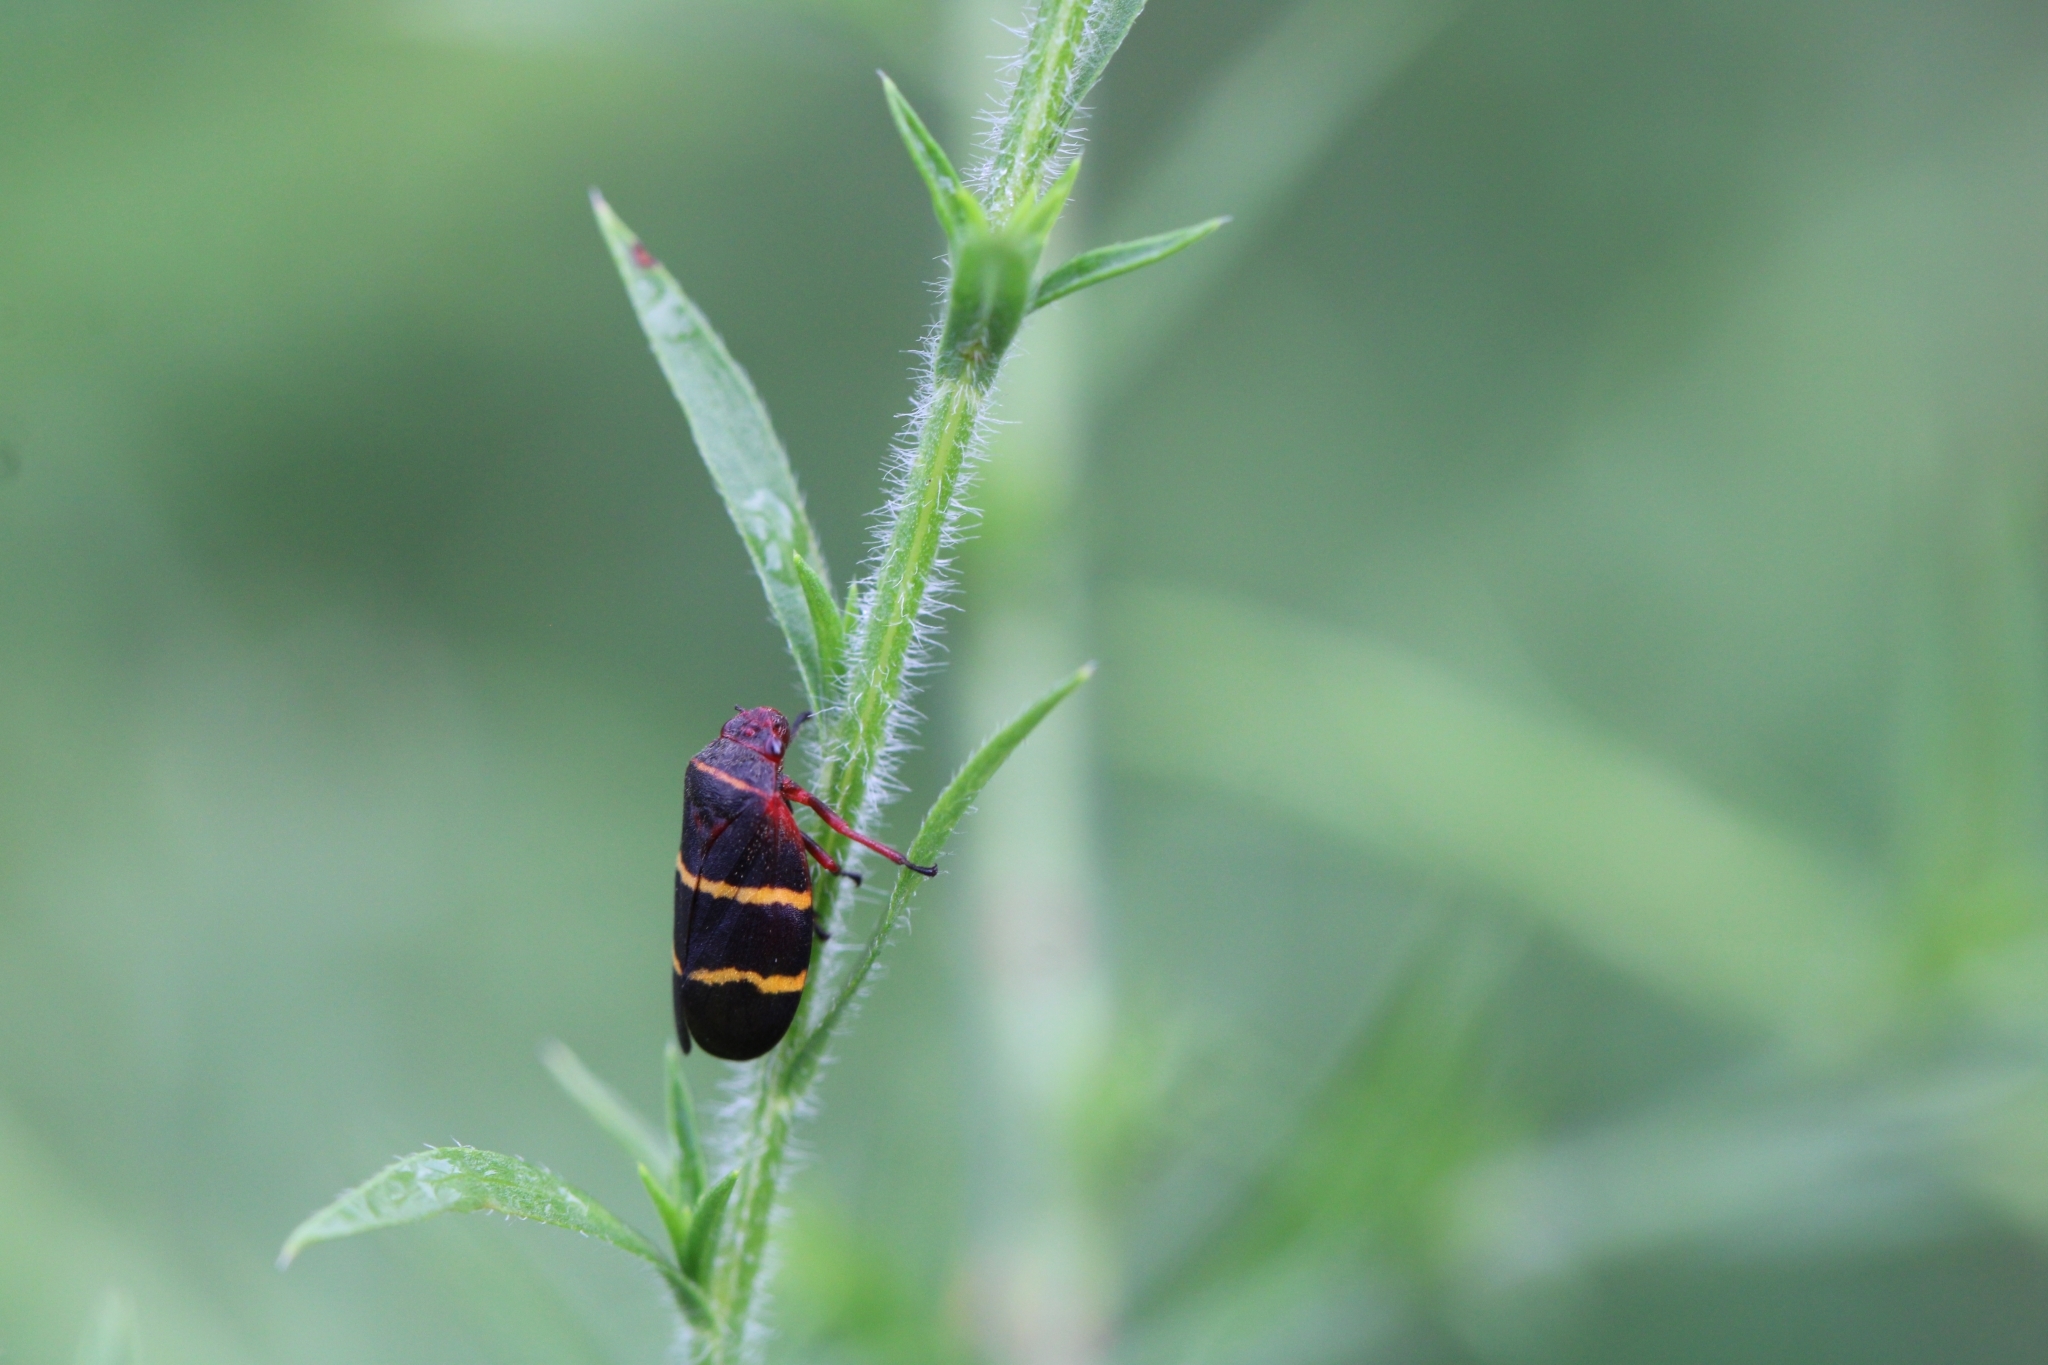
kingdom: Animalia
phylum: Arthropoda
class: Insecta
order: Hemiptera
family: Cercopidae
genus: Prosapia
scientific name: Prosapia bicincta
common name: Twolined spittlebug
